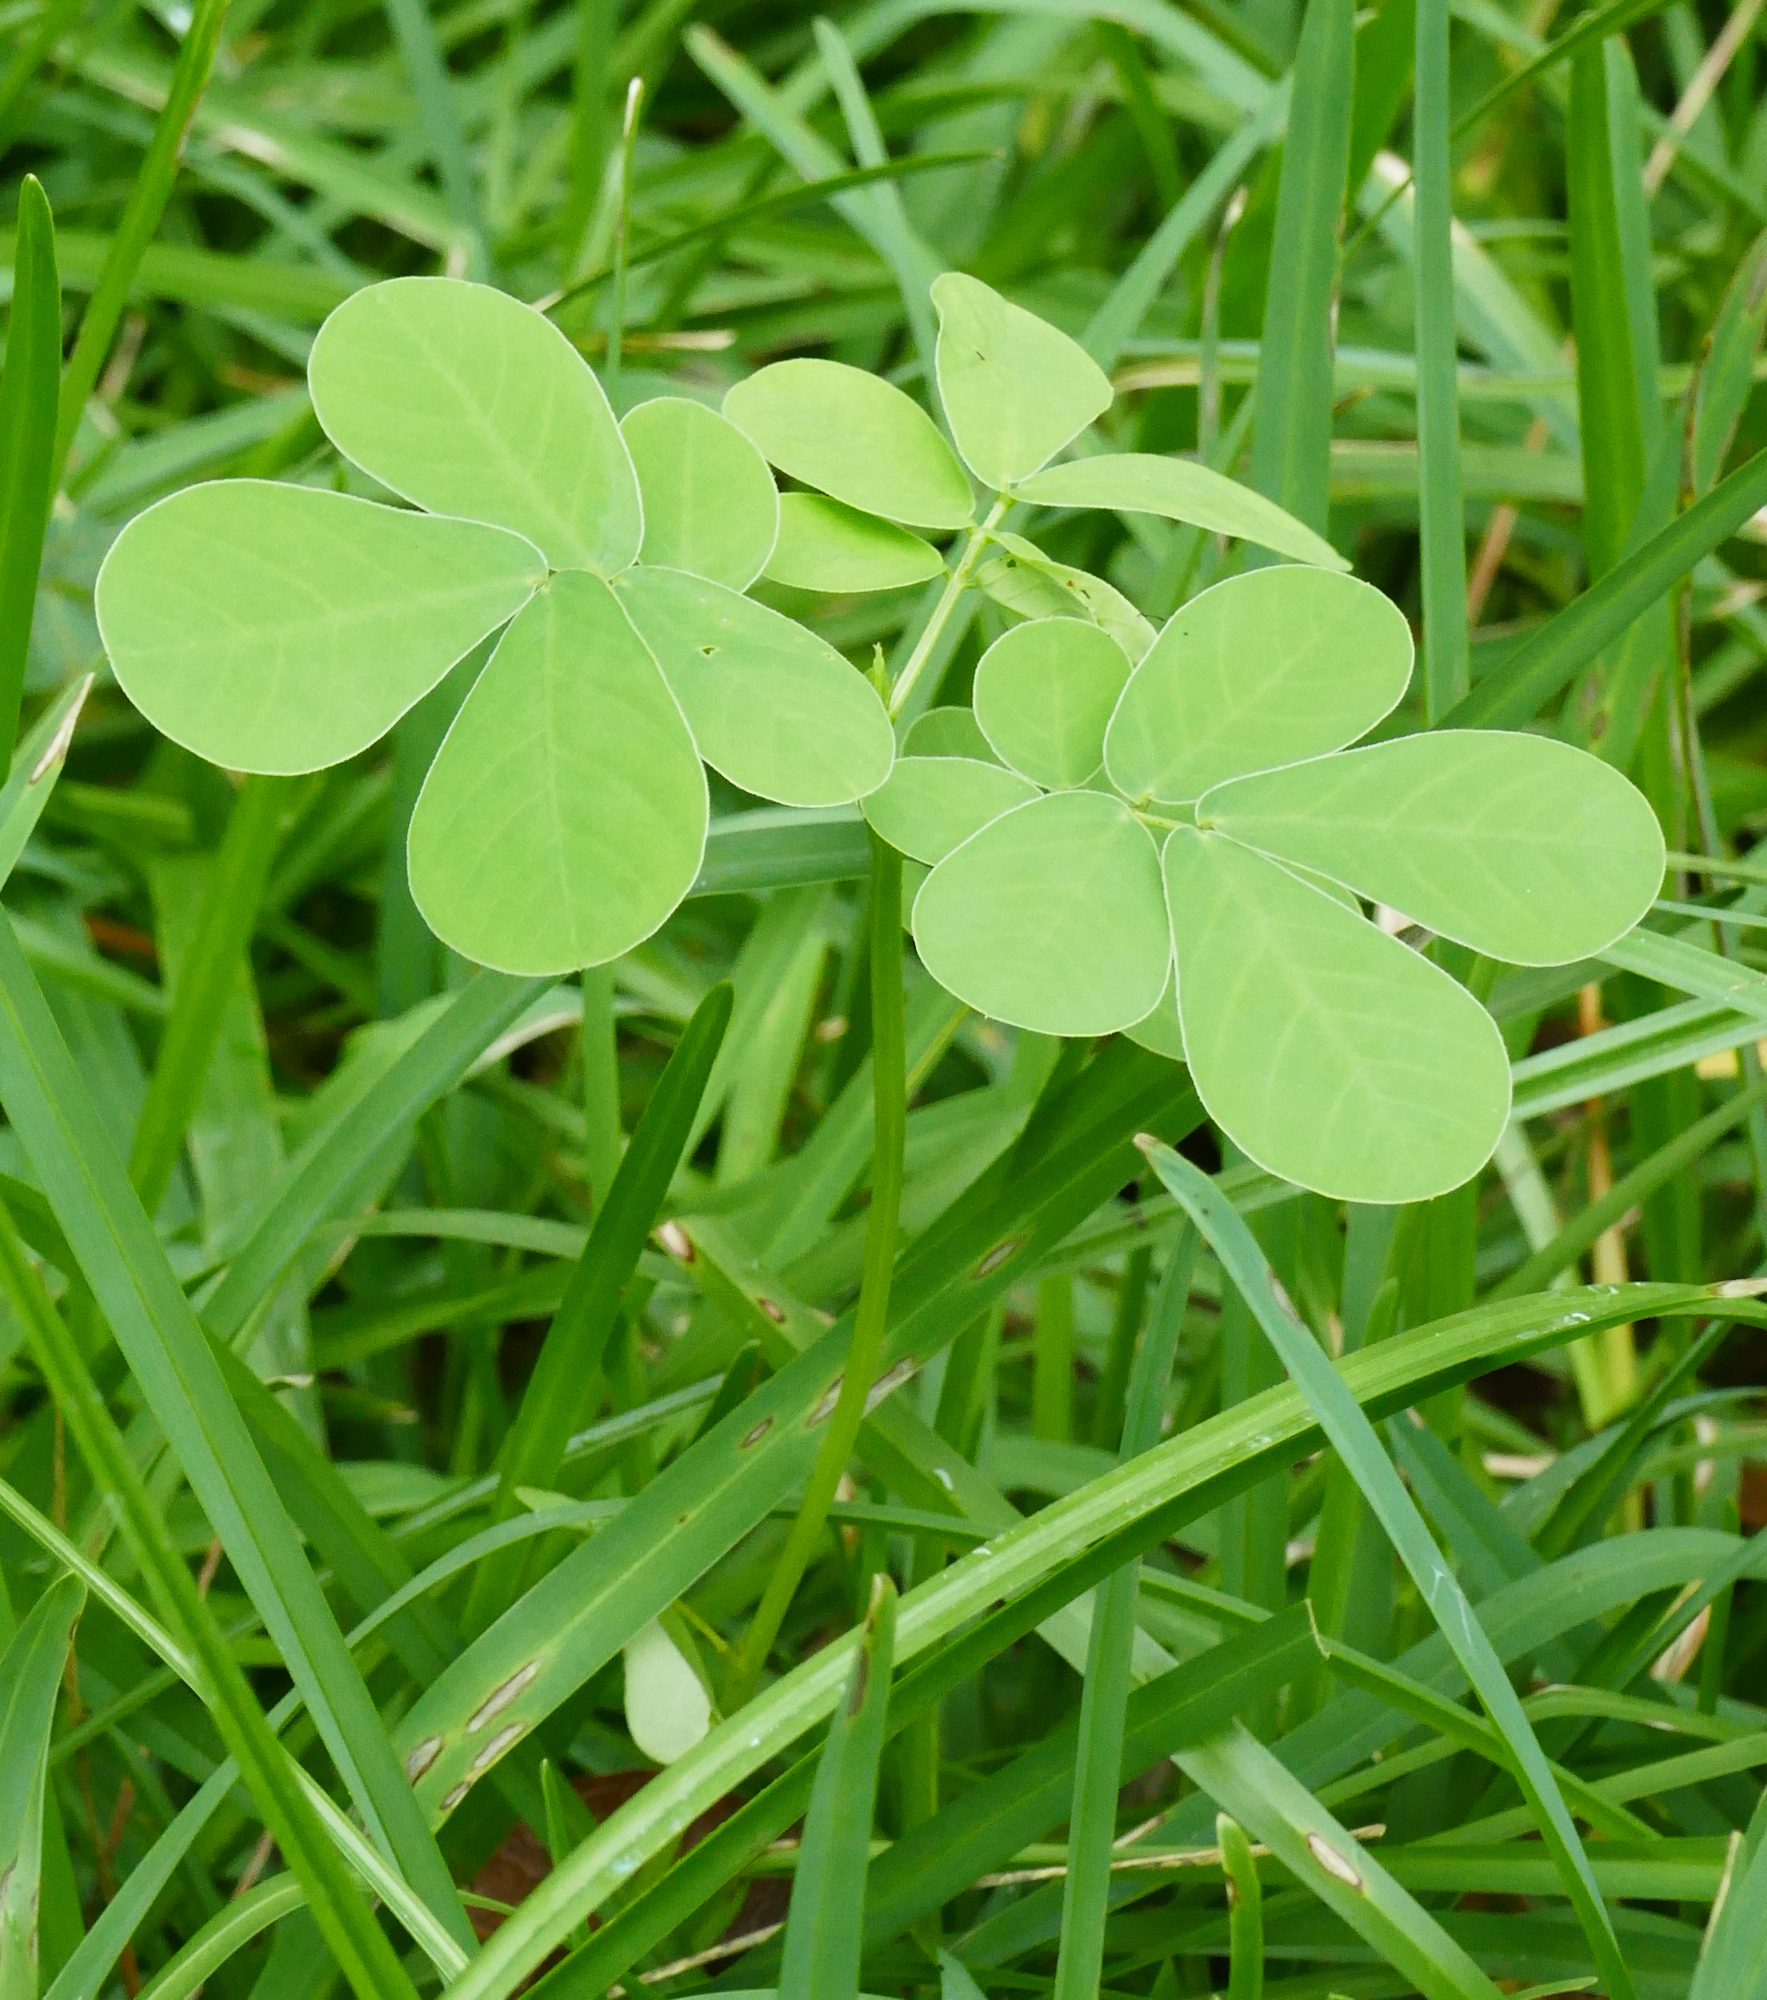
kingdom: Plantae
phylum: Tracheophyta
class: Magnoliopsida
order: Fabales
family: Fabaceae
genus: Senna
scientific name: Senna obtusifolia
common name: Java-bean
